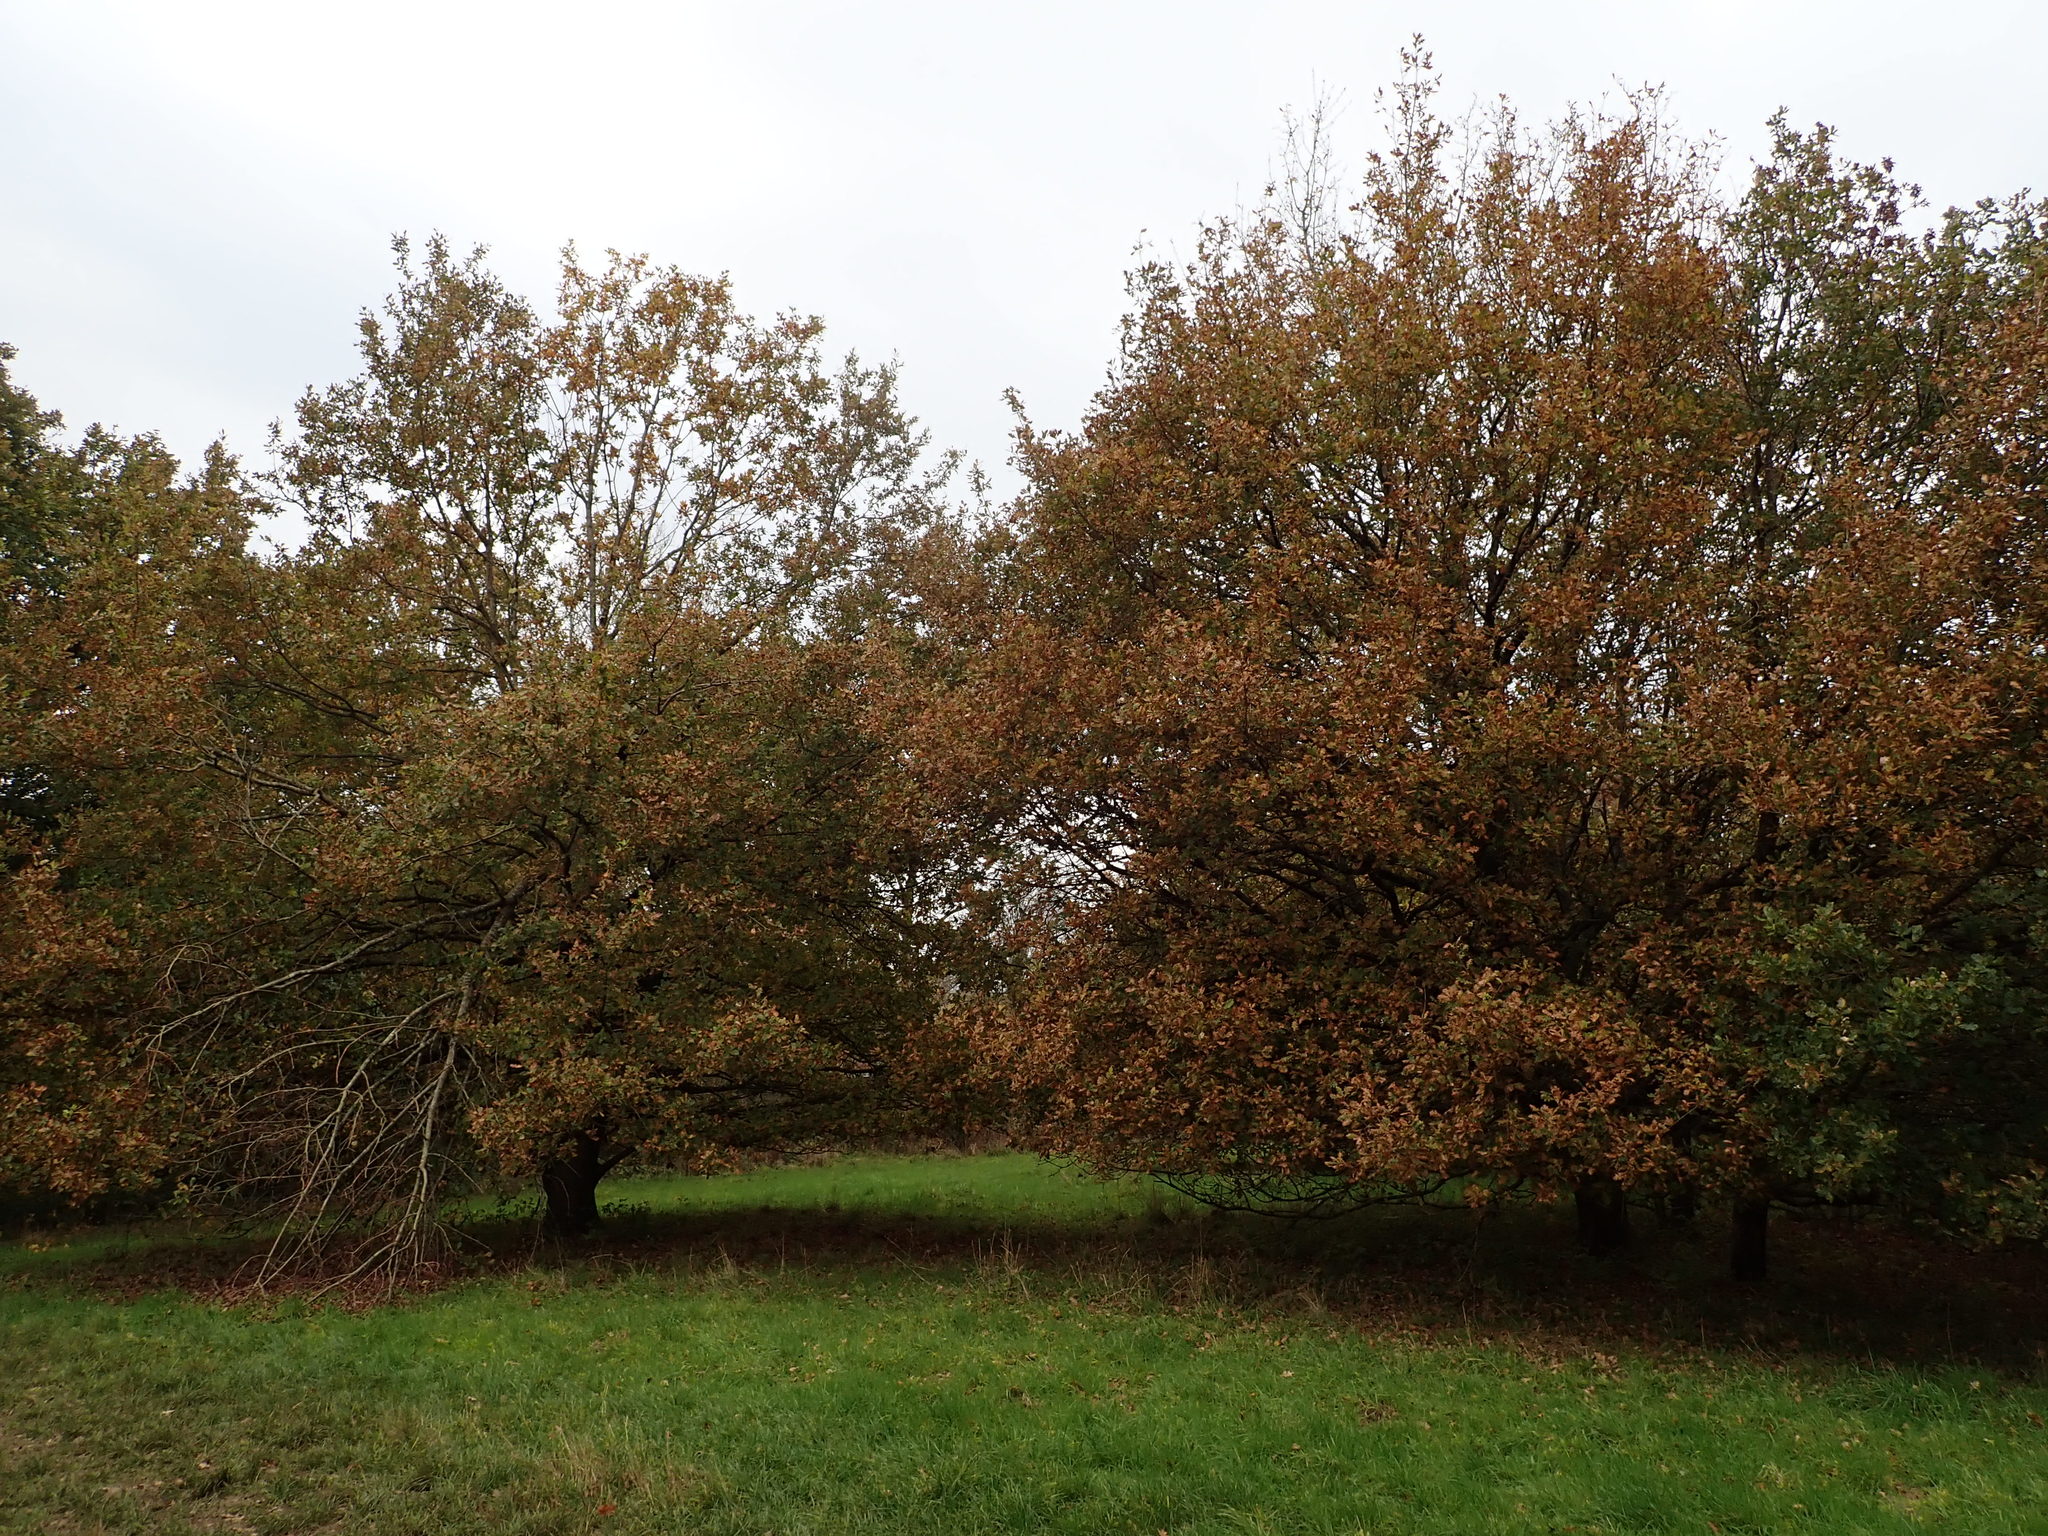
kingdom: Plantae
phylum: Tracheophyta
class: Magnoliopsida
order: Fagales
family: Fagaceae
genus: Quercus
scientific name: Quercus robur
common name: Pedunculate oak
